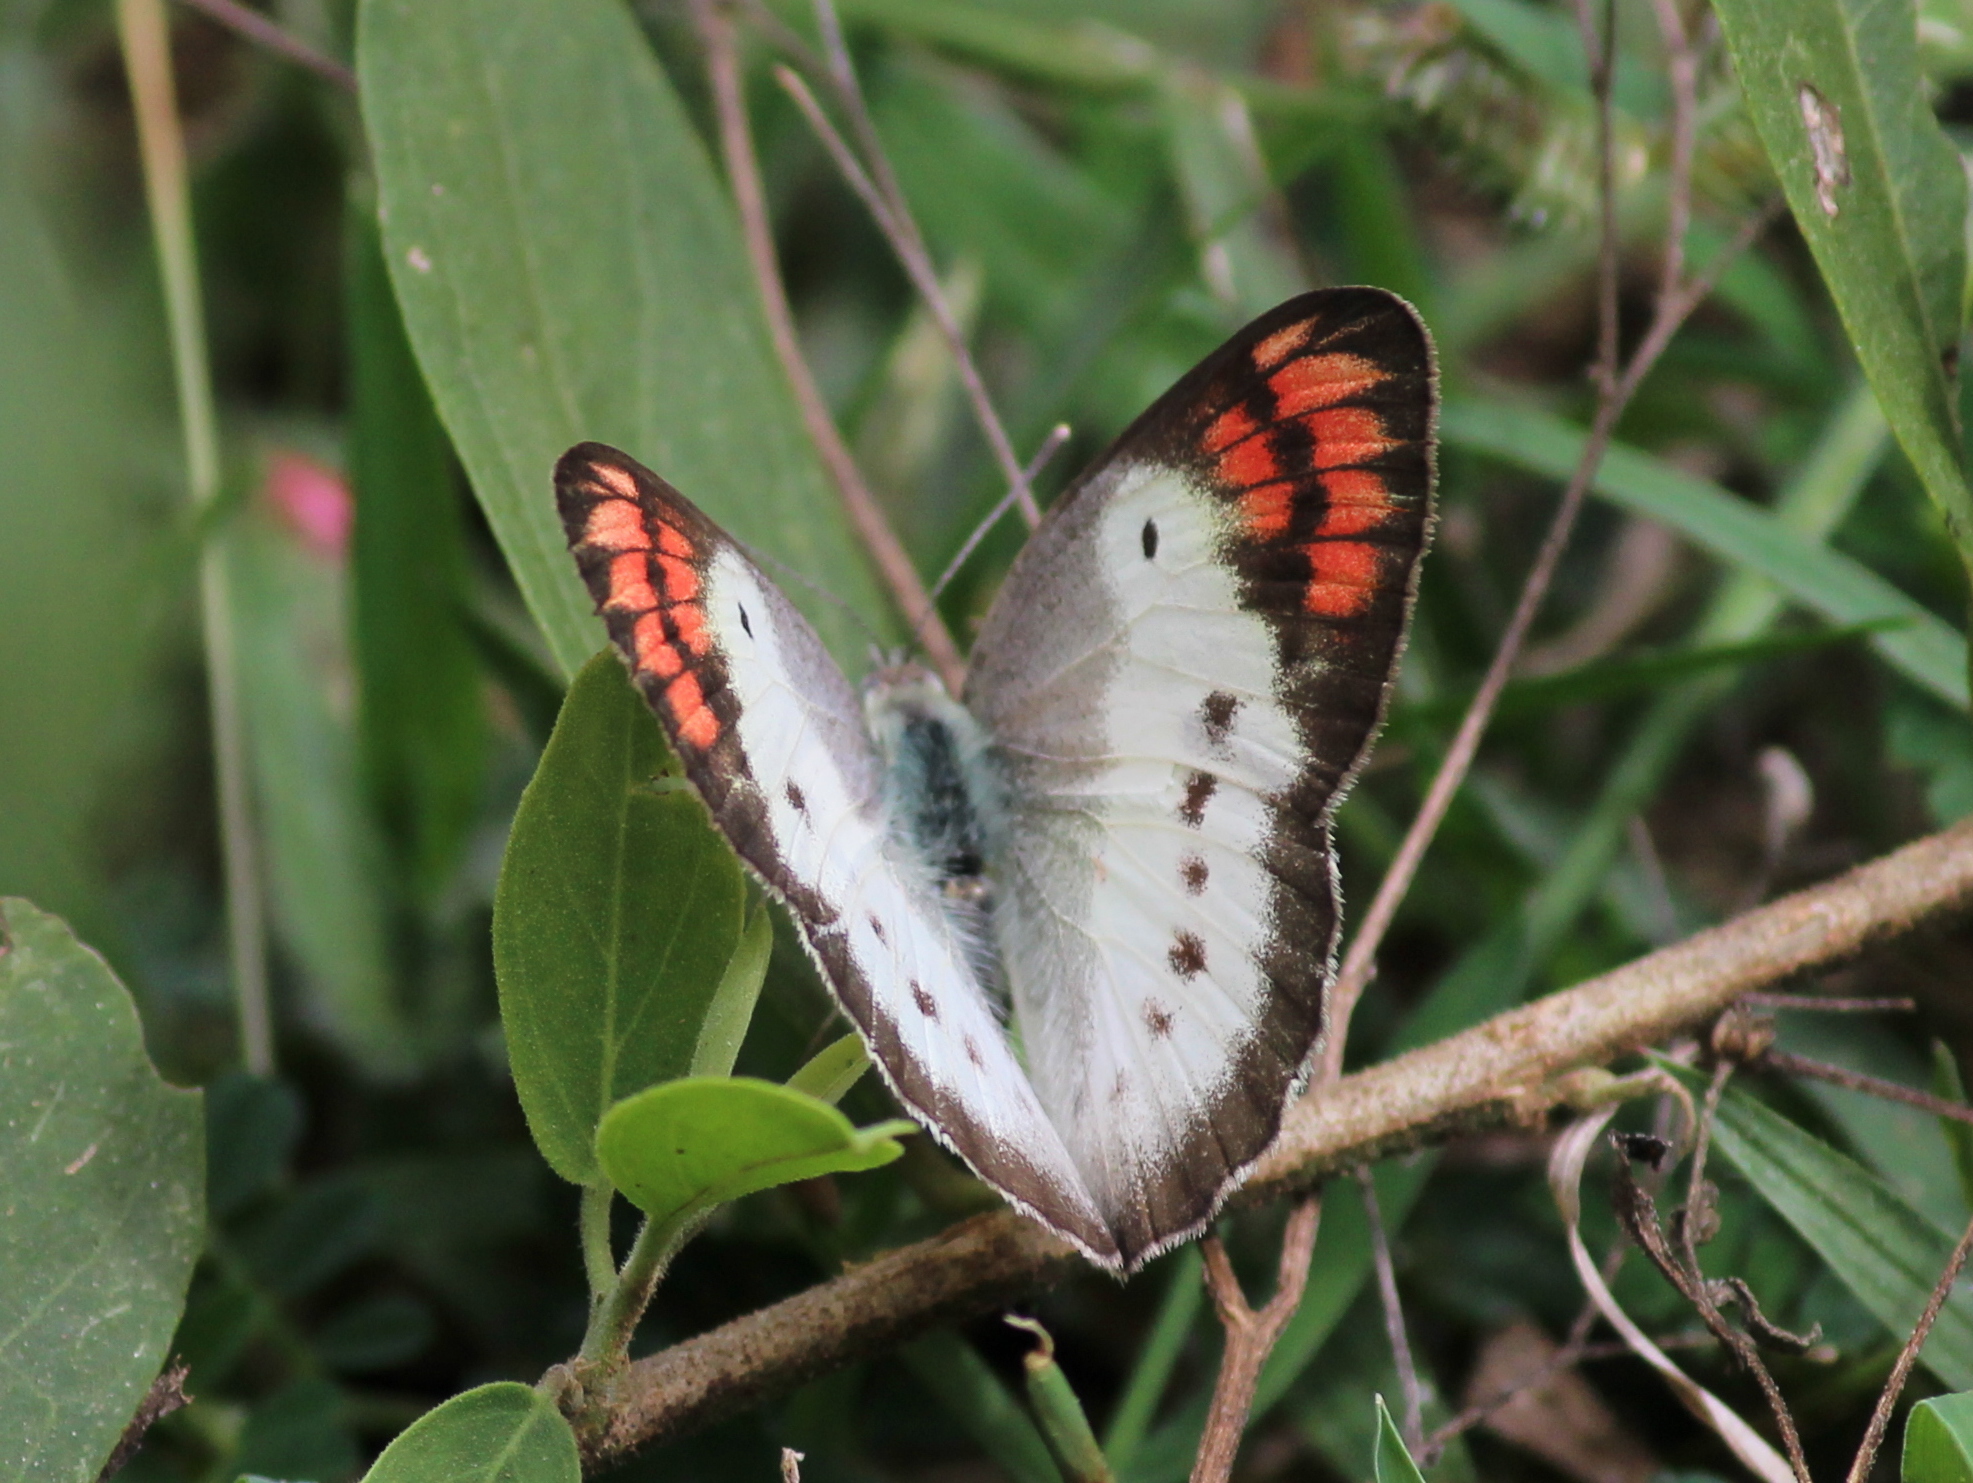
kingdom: Animalia
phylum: Arthropoda
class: Insecta
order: Lepidoptera
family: Pieridae
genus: Colotis
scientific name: Colotis danae
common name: Crimson tip
